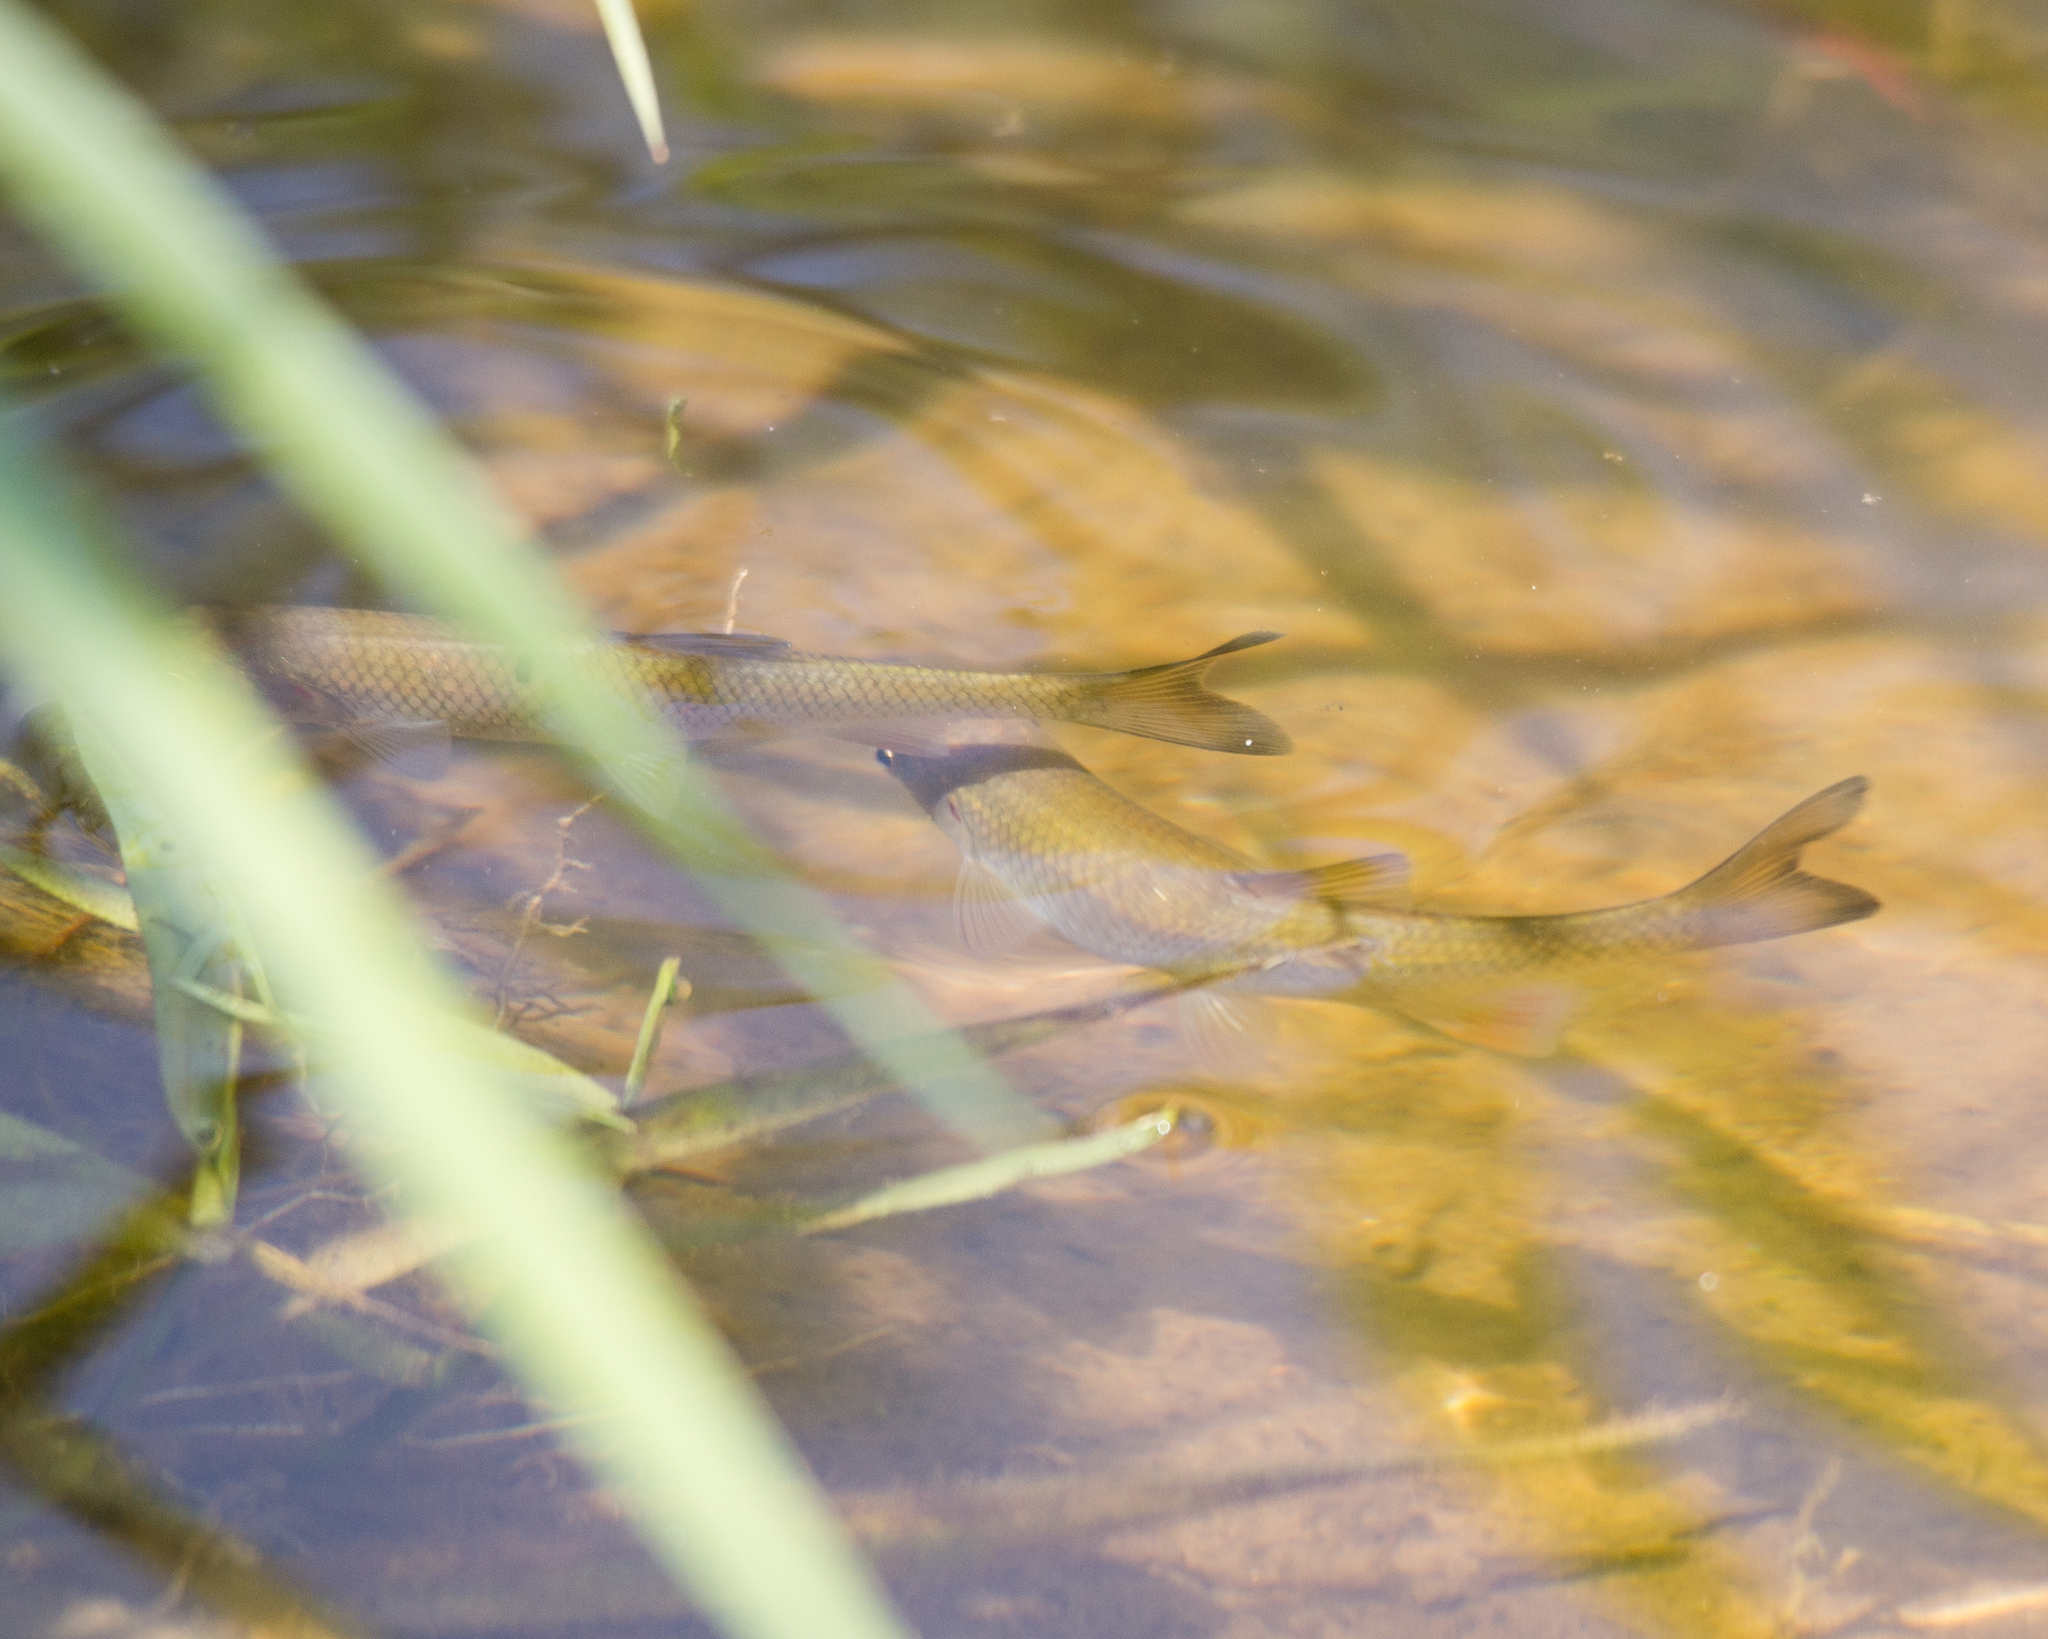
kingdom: Animalia
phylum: Chordata
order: Cypriniformes
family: Cyprinidae
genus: Squalius
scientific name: Squalius cephalus
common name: Chub
